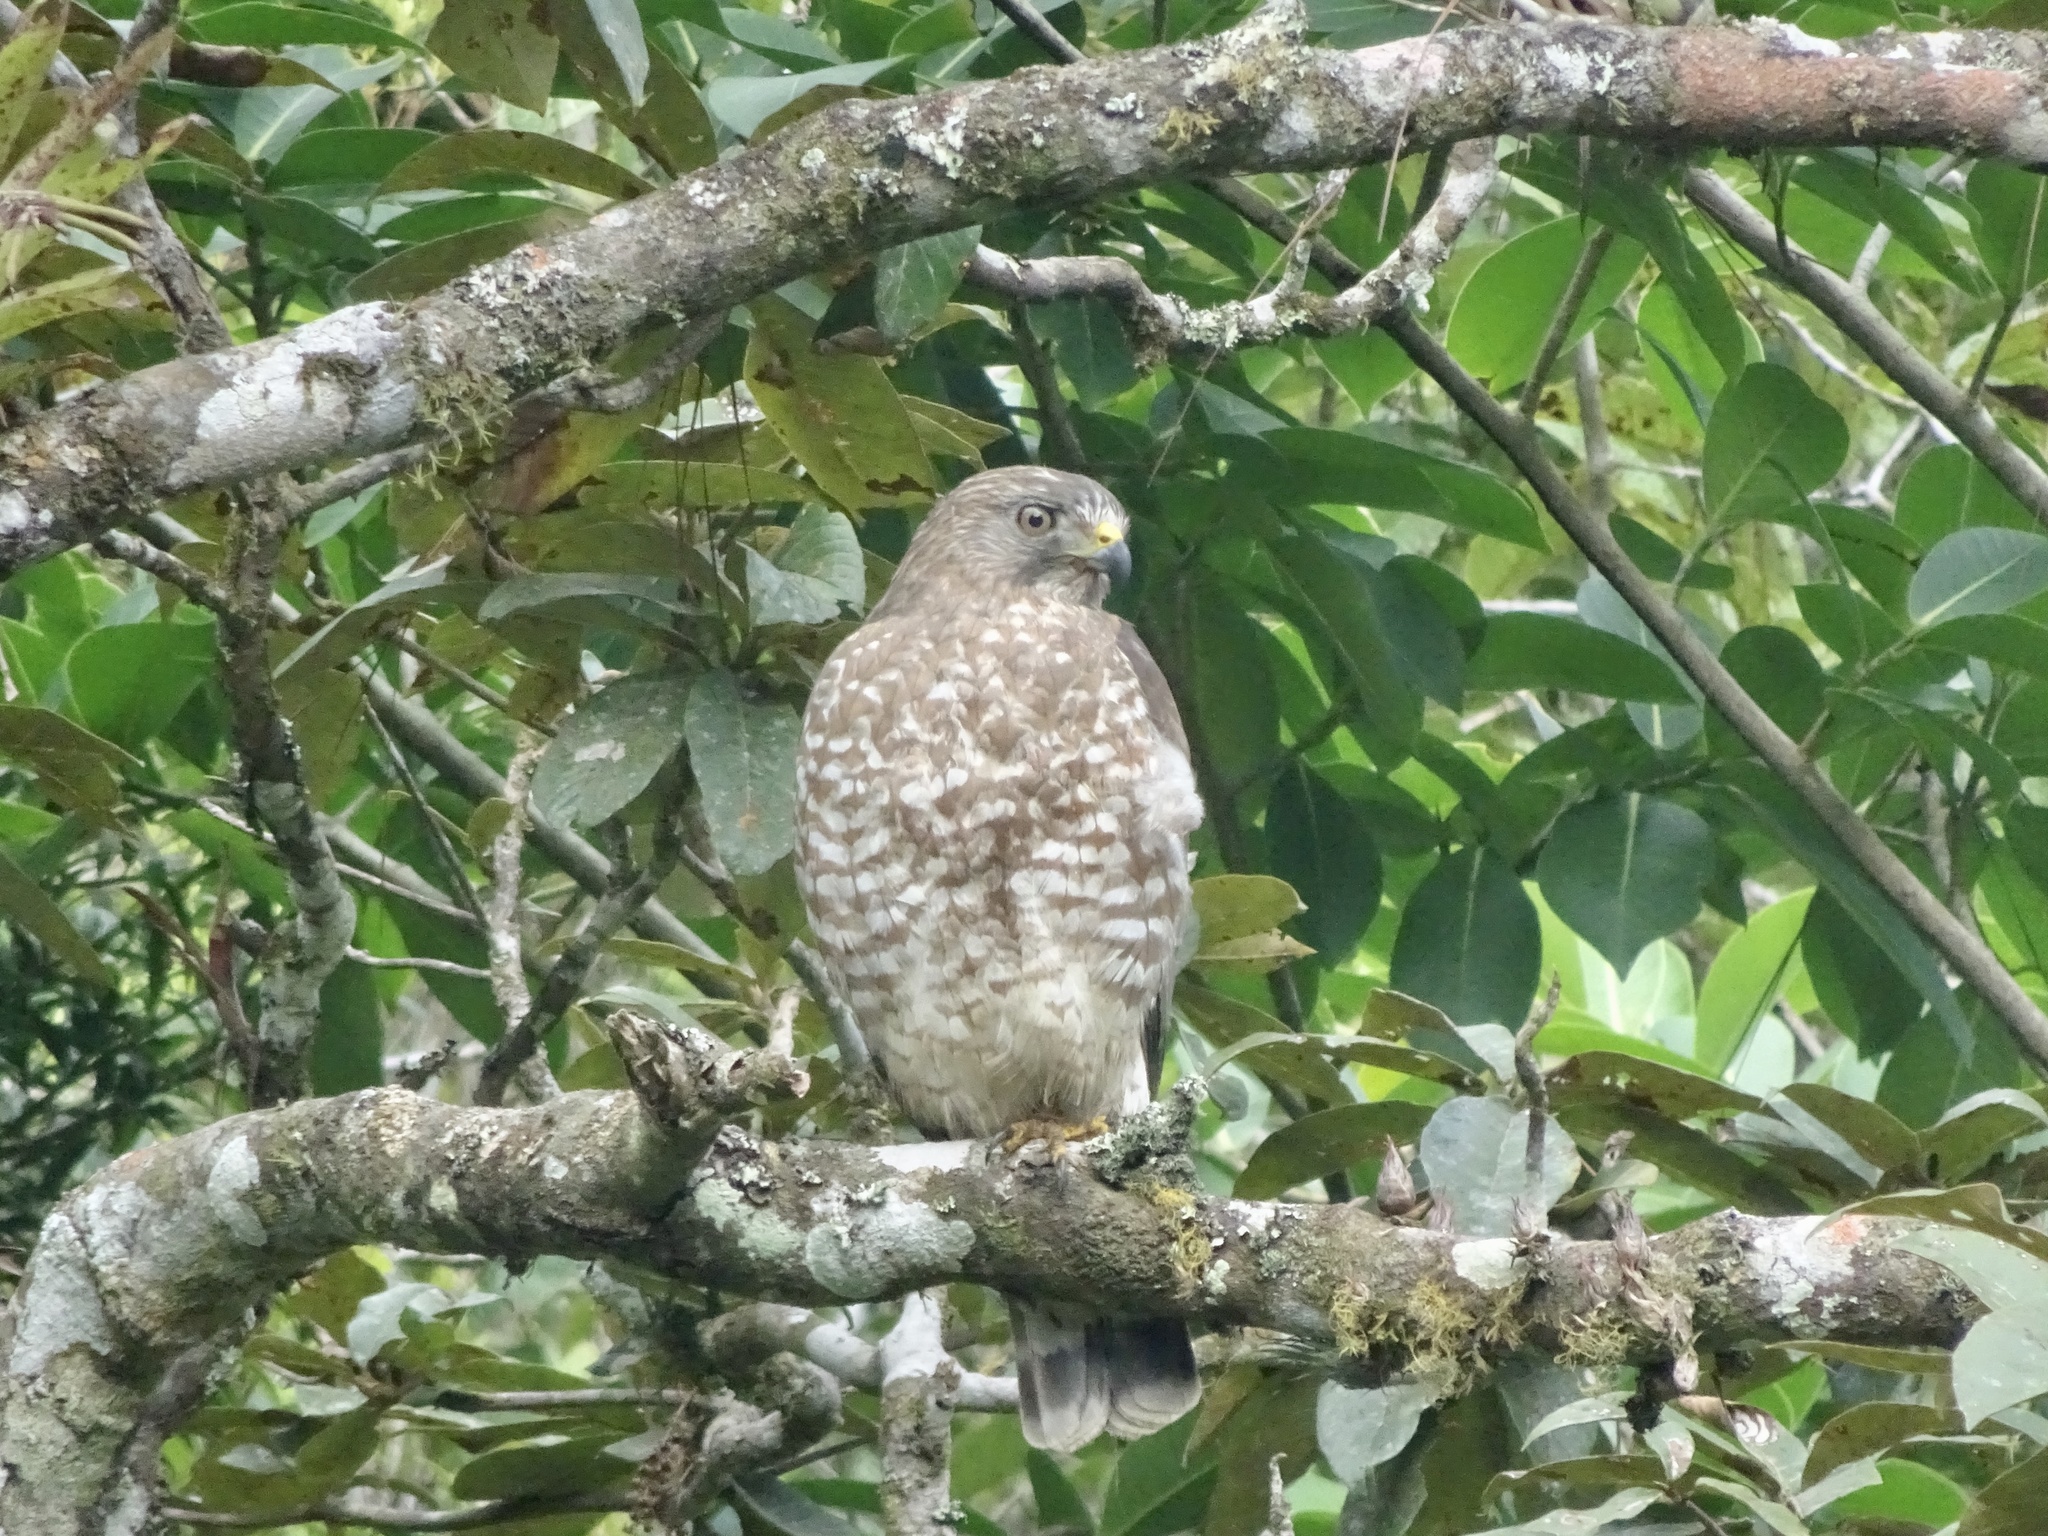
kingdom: Animalia
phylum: Chordata
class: Aves
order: Accipitriformes
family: Accipitridae
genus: Buteo
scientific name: Buteo platypterus
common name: Broad-winged hawk
